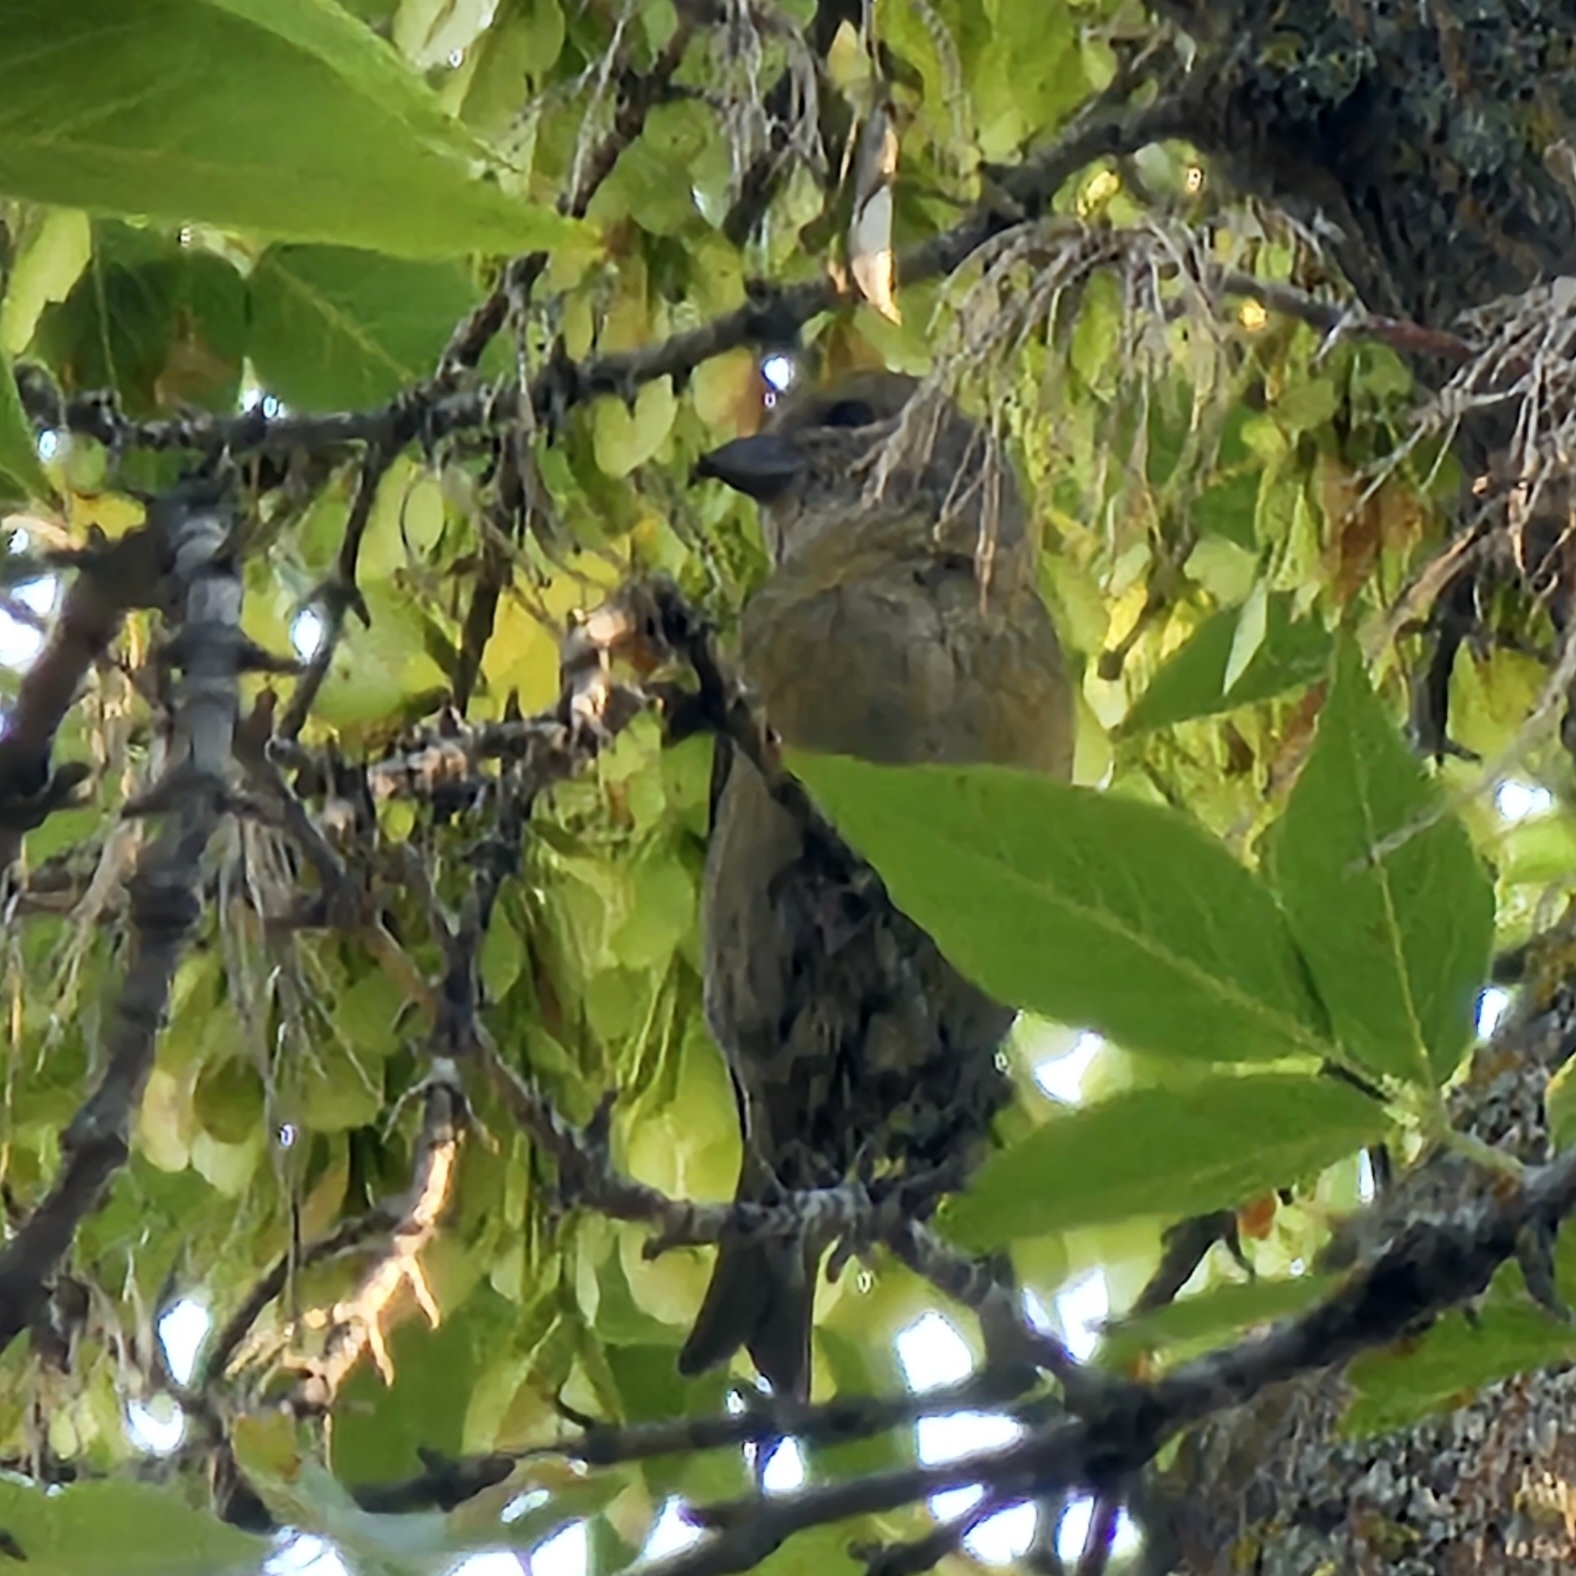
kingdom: Animalia
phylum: Chordata
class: Aves
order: Passeriformes
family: Fringillidae
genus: Loxia
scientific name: Loxia curvirostra
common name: Red crossbill
